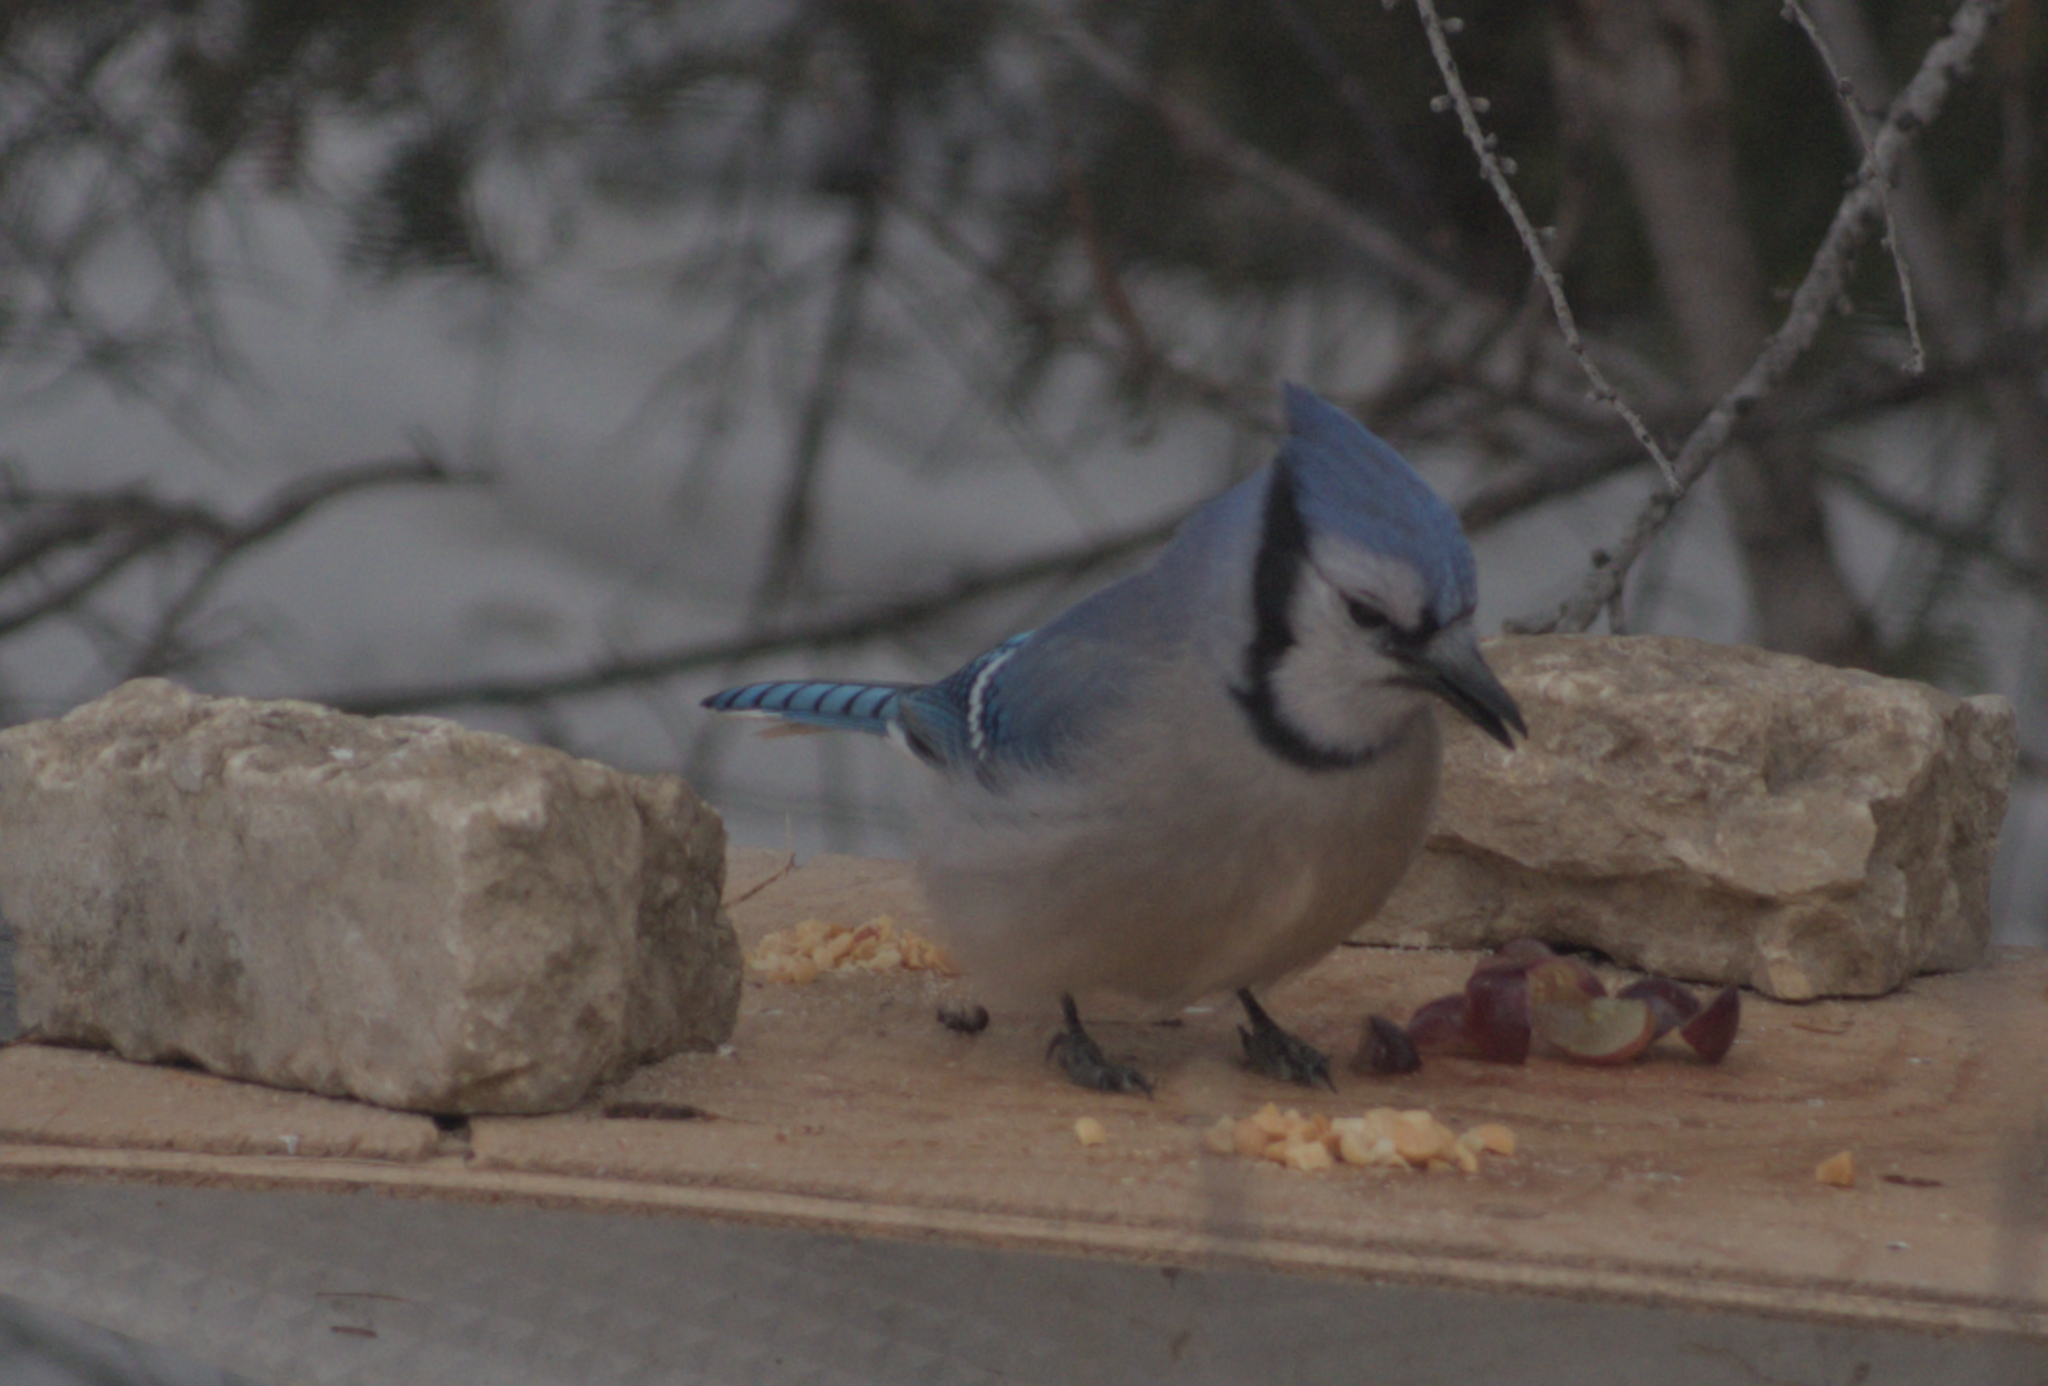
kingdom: Animalia
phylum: Chordata
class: Aves
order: Passeriformes
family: Corvidae
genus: Cyanocitta
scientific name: Cyanocitta cristata
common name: Blue jay
